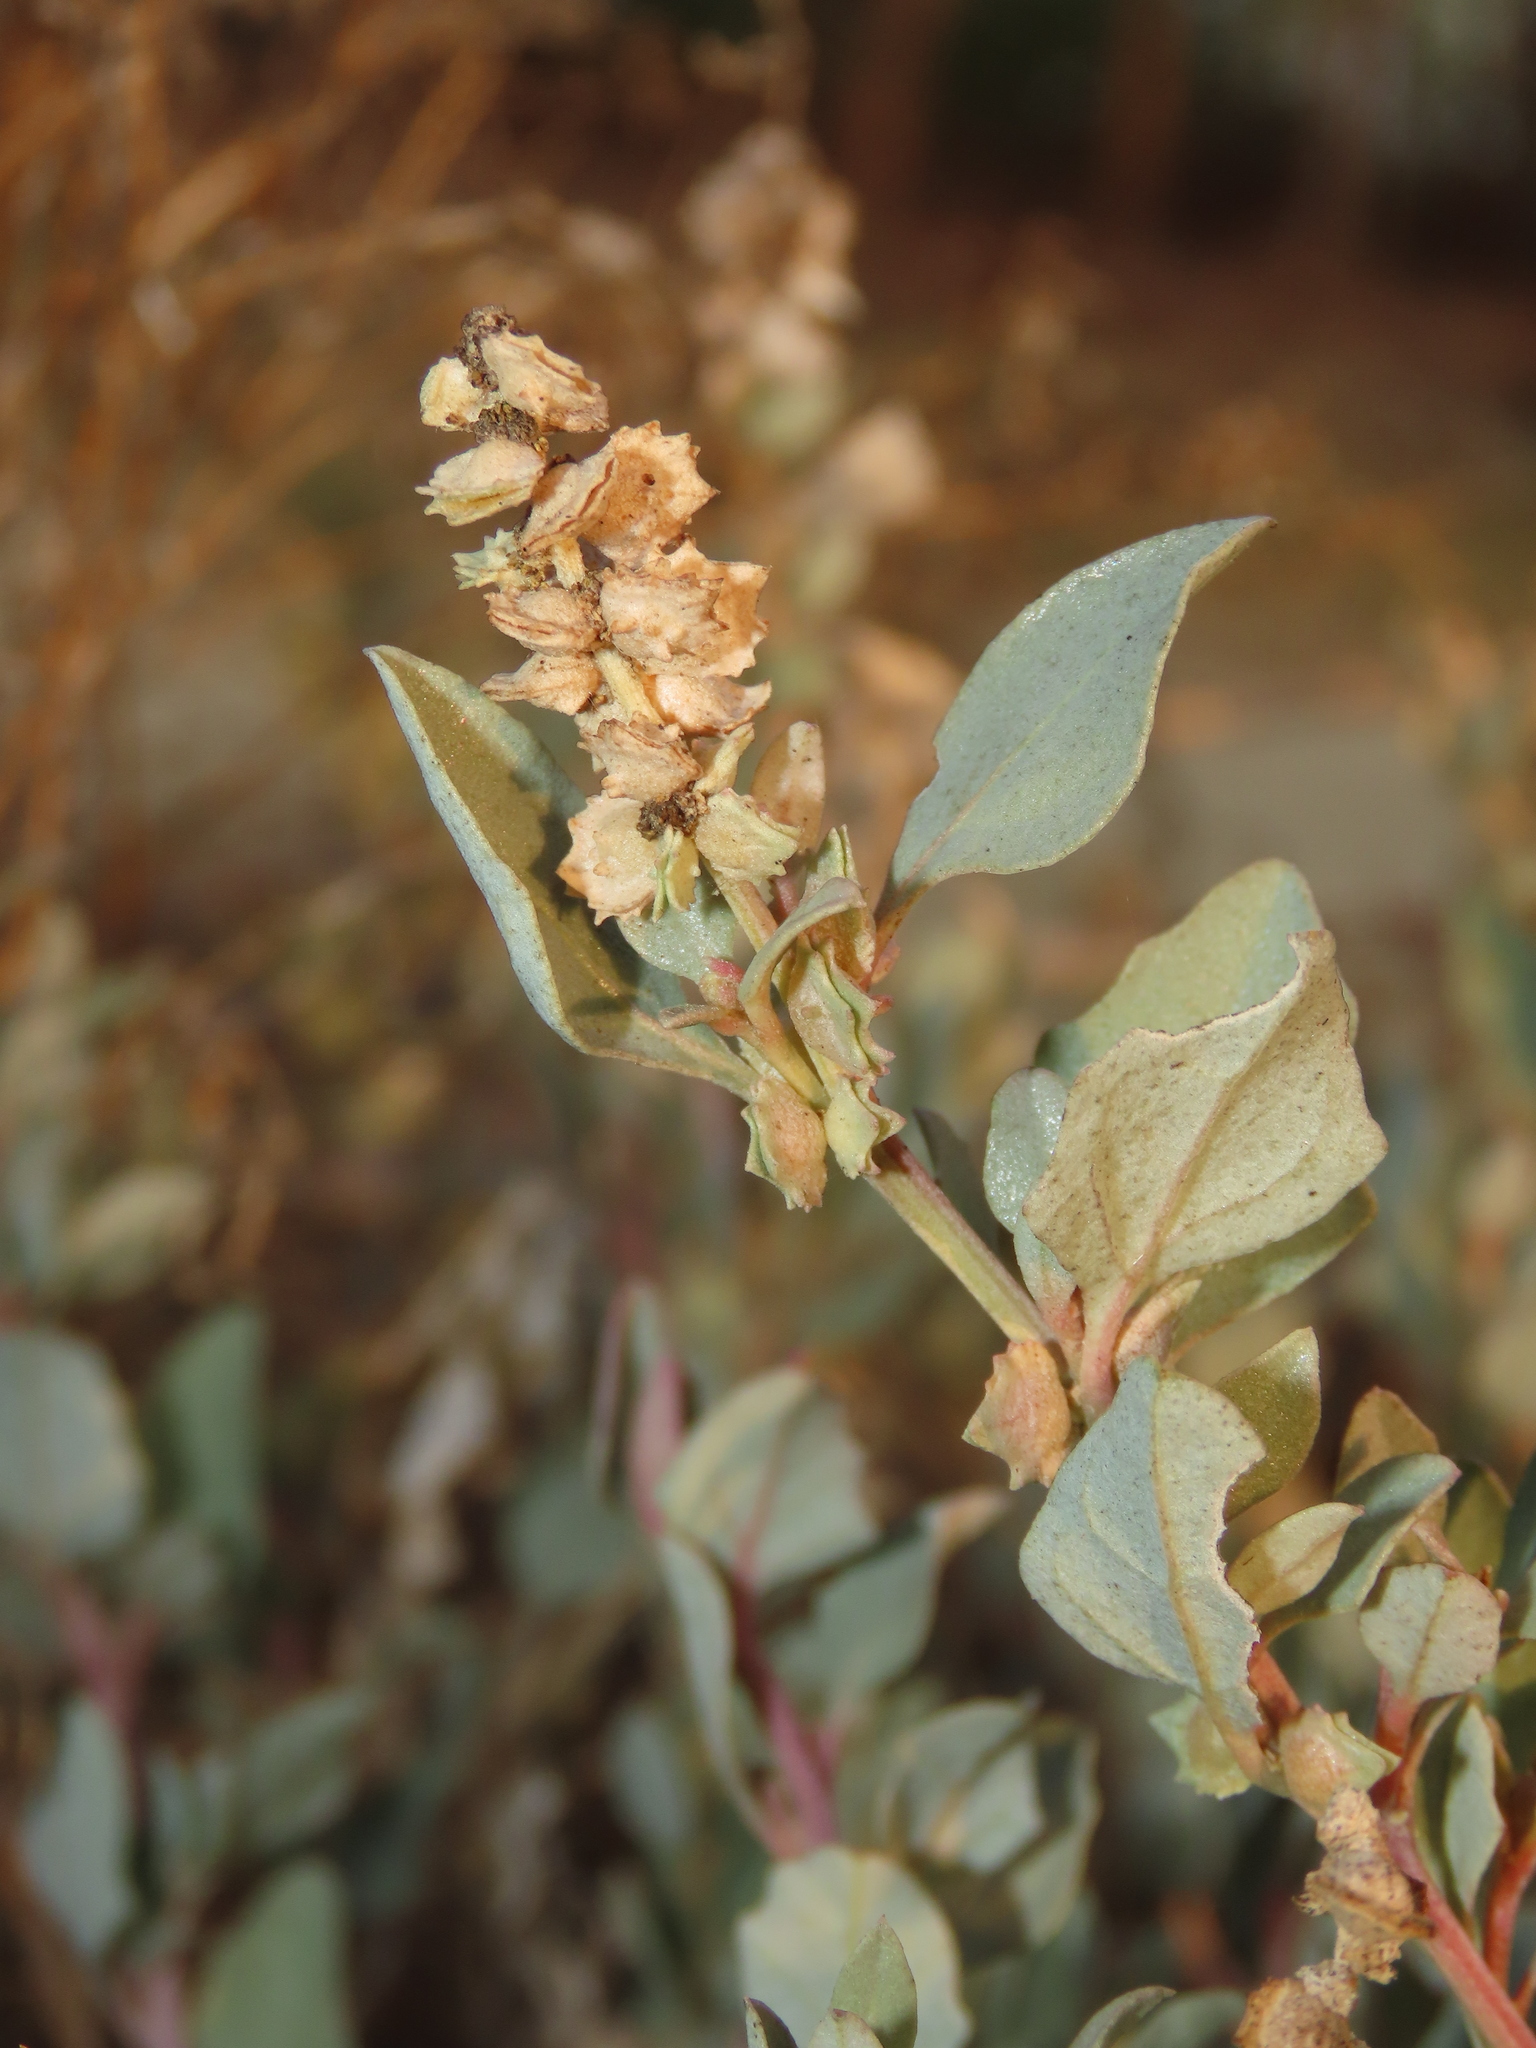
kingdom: Plantae
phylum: Tracheophyta
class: Magnoliopsida
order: Caryophyllales
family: Amaranthaceae
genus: Atriplex
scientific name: Atriplex maximowicziana
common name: Maximowicz's saltbush
